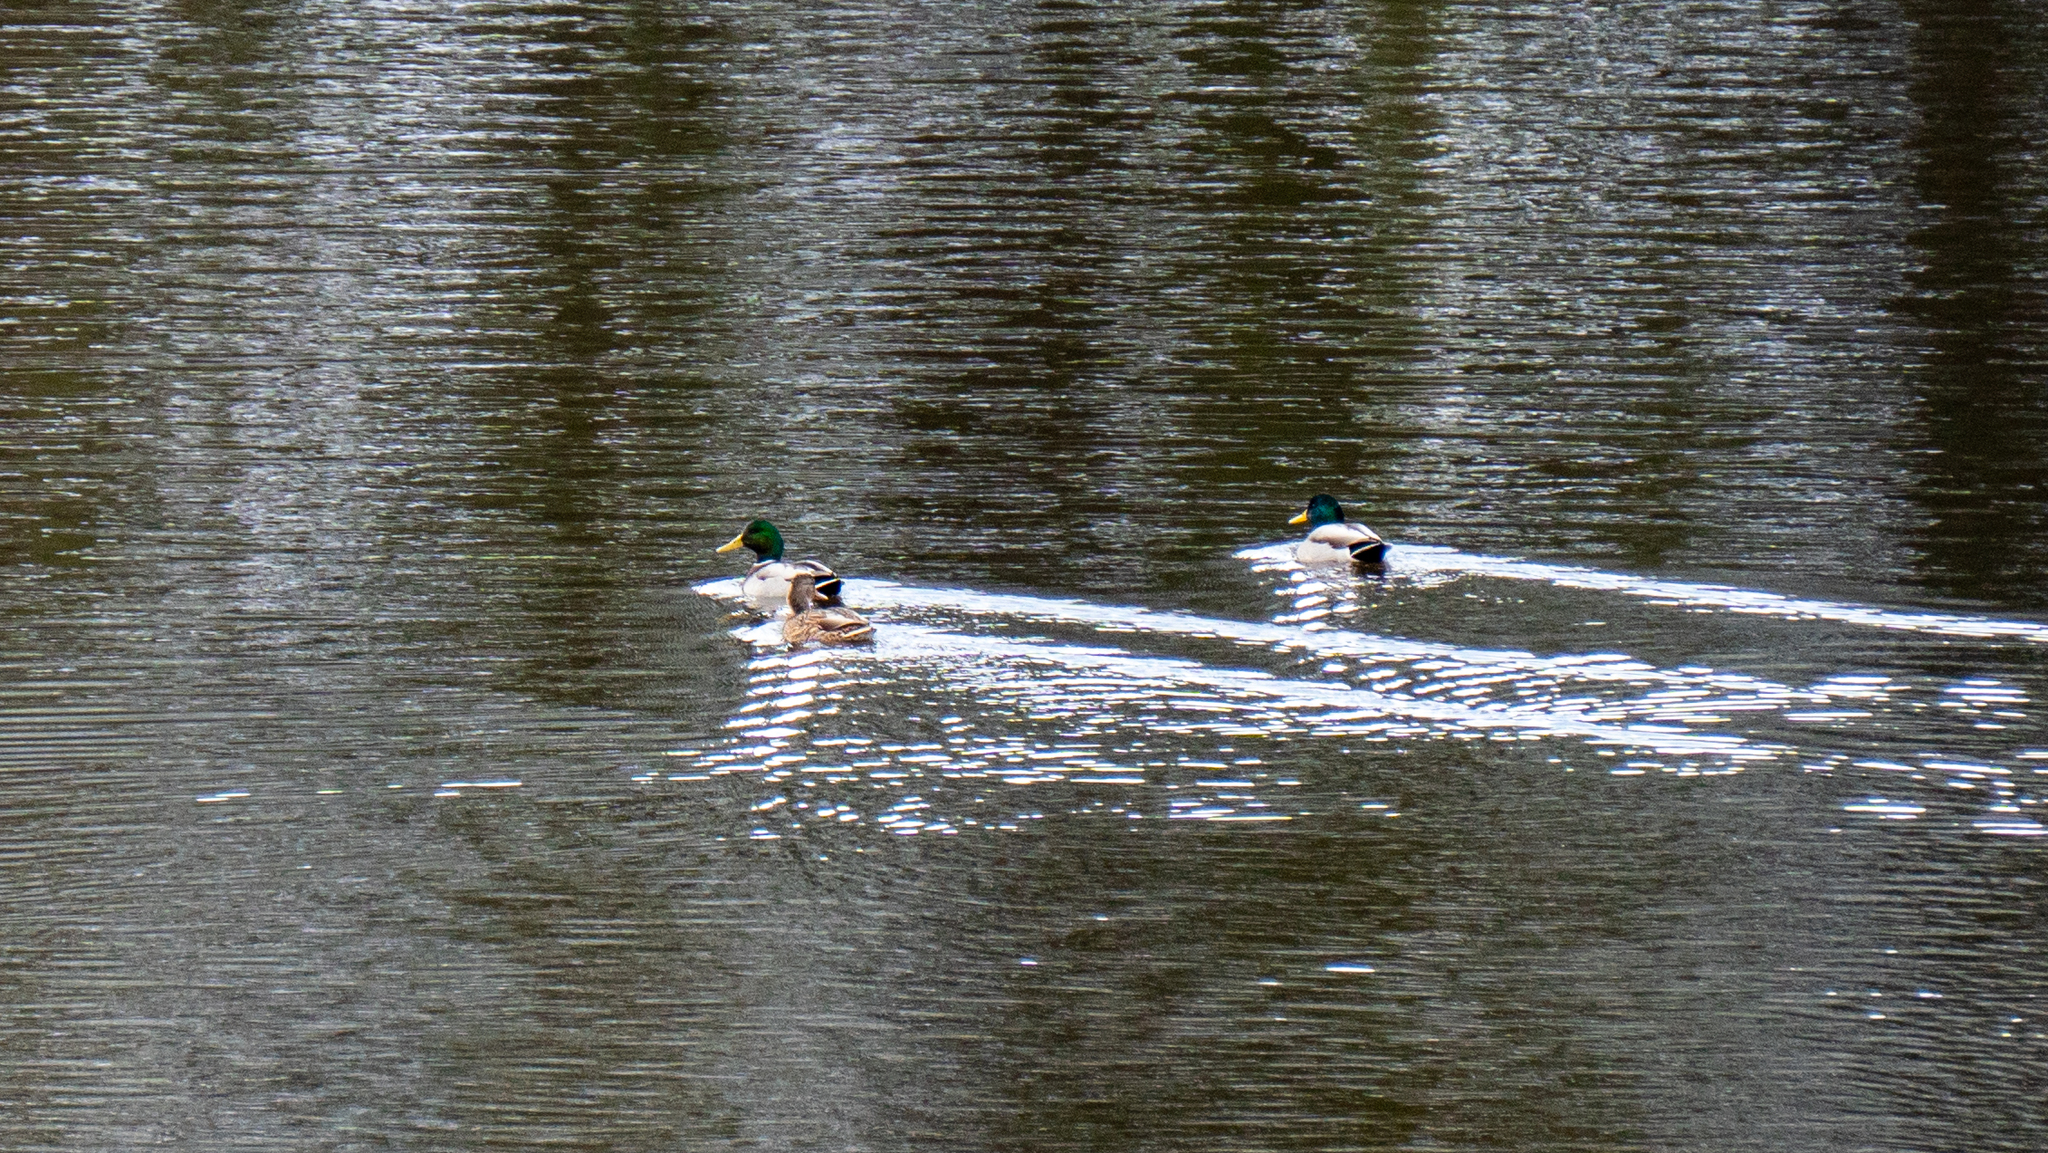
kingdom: Animalia
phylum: Chordata
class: Aves
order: Anseriformes
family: Anatidae
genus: Anas
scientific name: Anas platyrhynchos
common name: Mallard
